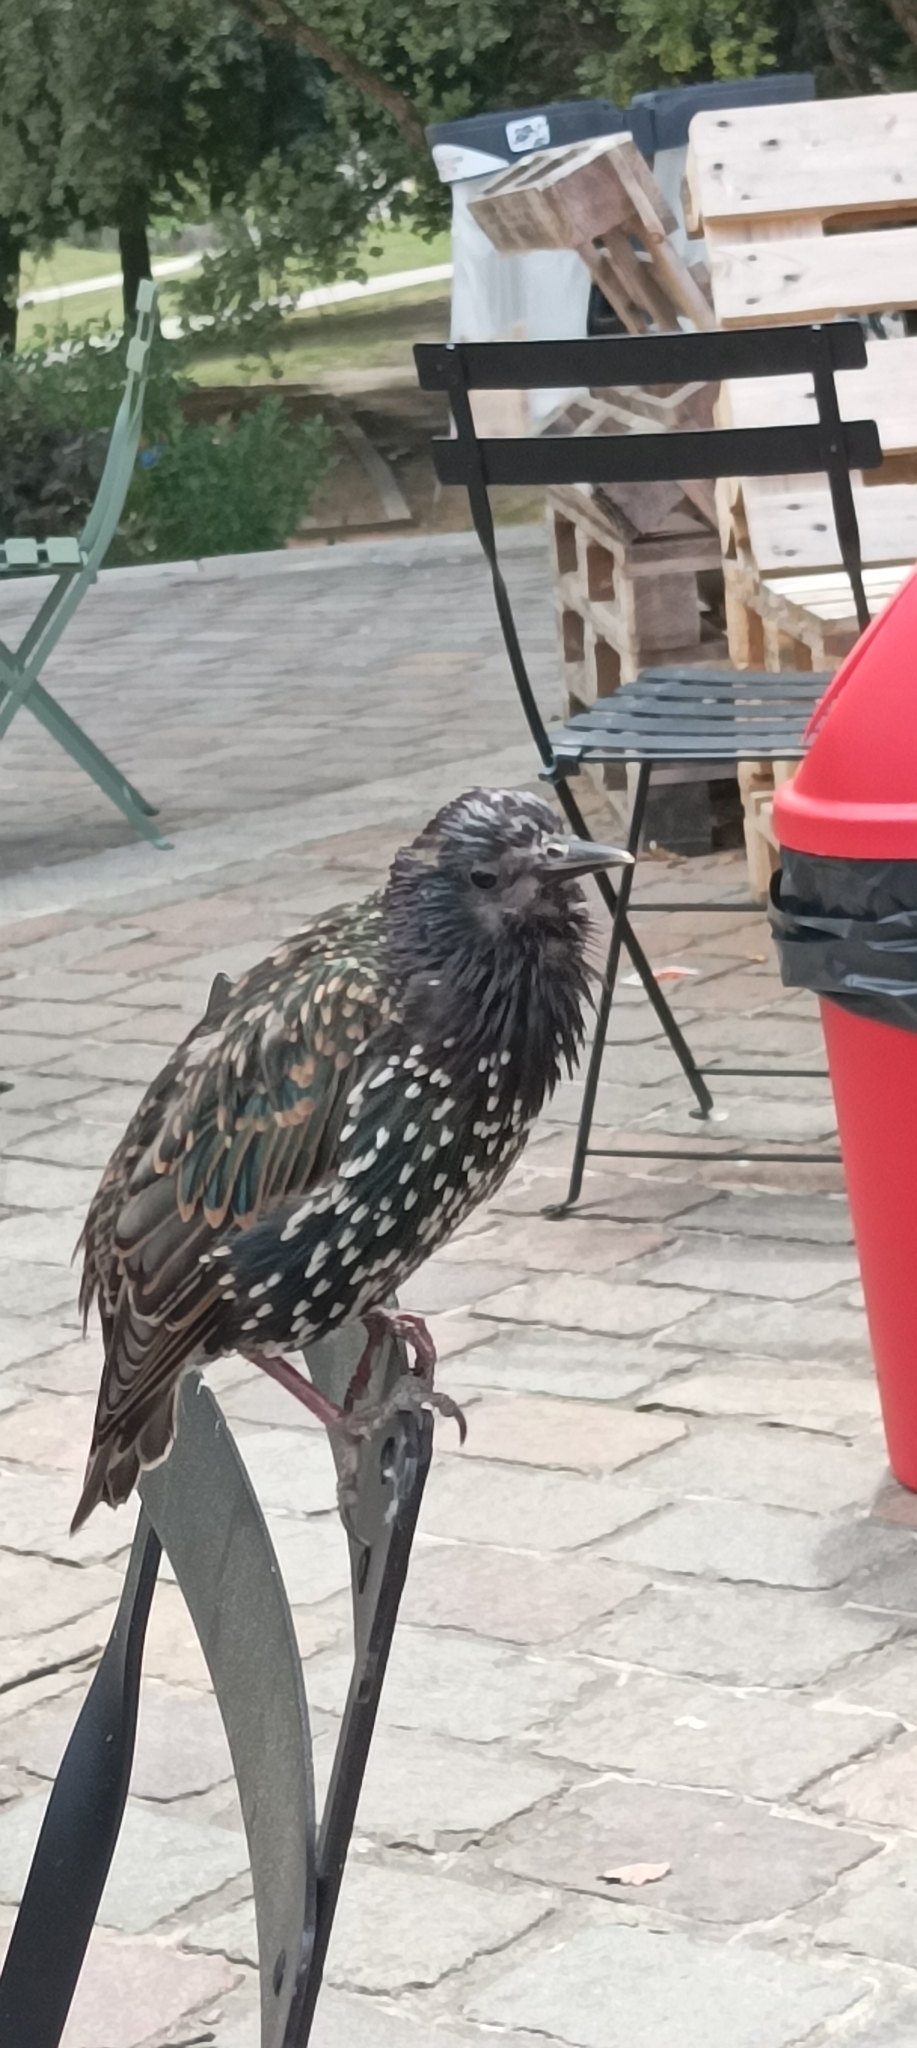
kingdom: Animalia
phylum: Chordata
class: Aves
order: Passeriformes
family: Sturnidae
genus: Sturnus
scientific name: Sturnus vulgaris
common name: Common starling
